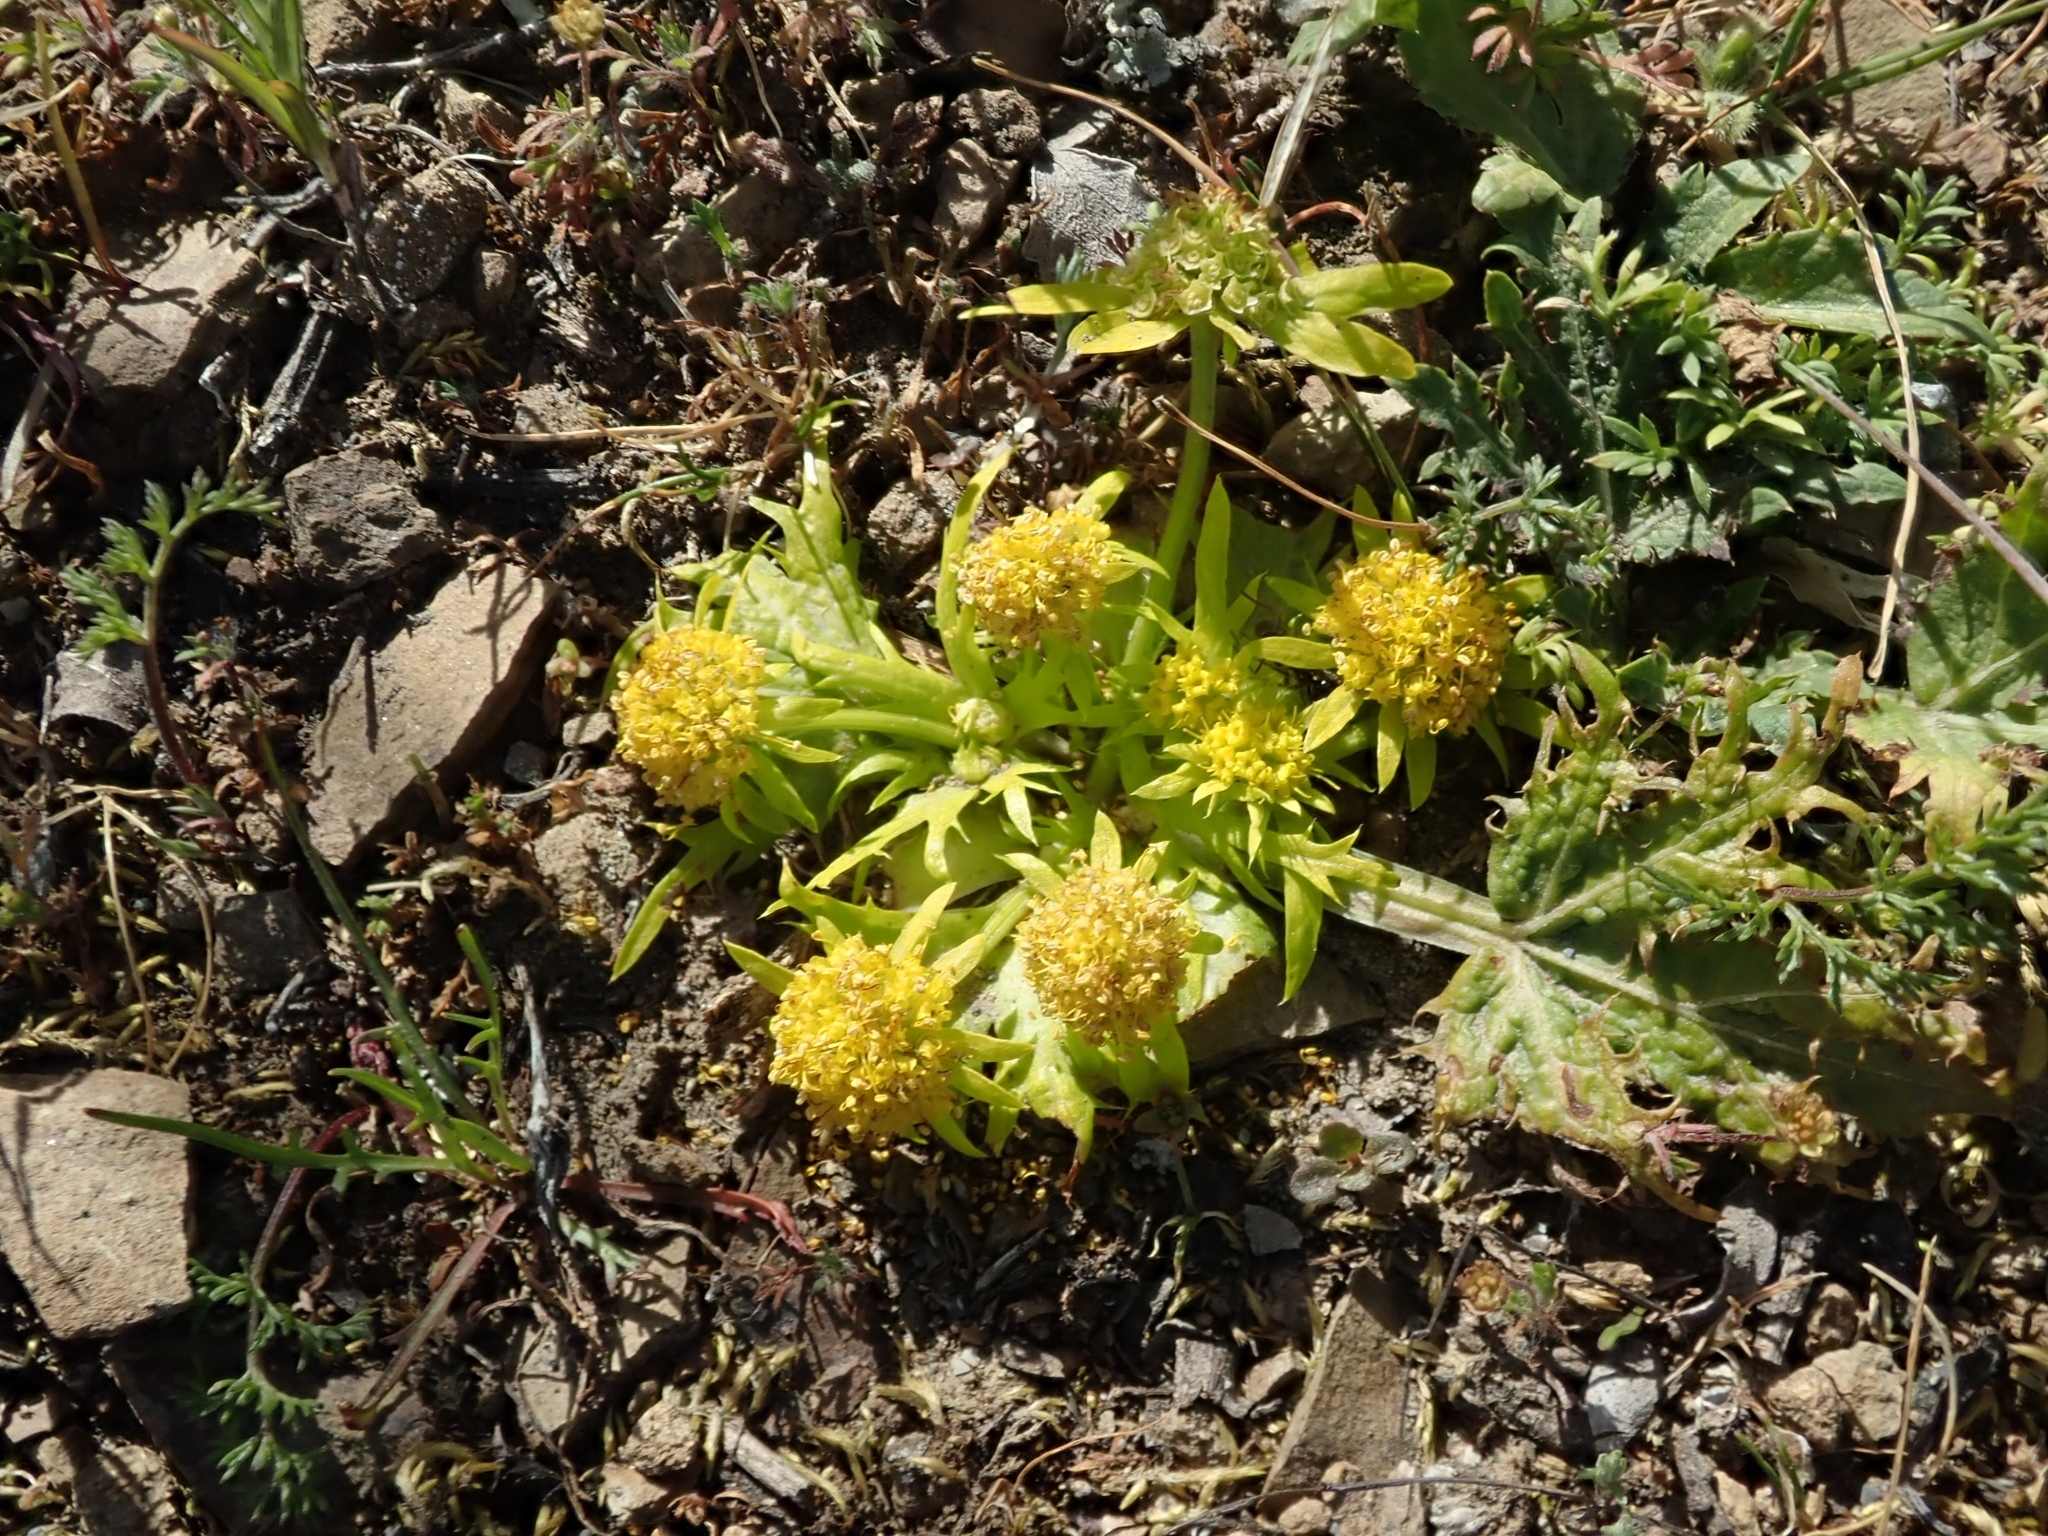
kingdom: Plantae
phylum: Tracheophyta
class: Magnoliopsida
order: Apiales
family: Apiaceae
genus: Sanicula
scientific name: Sanicula arctopoides
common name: Footsteps-of-spring
